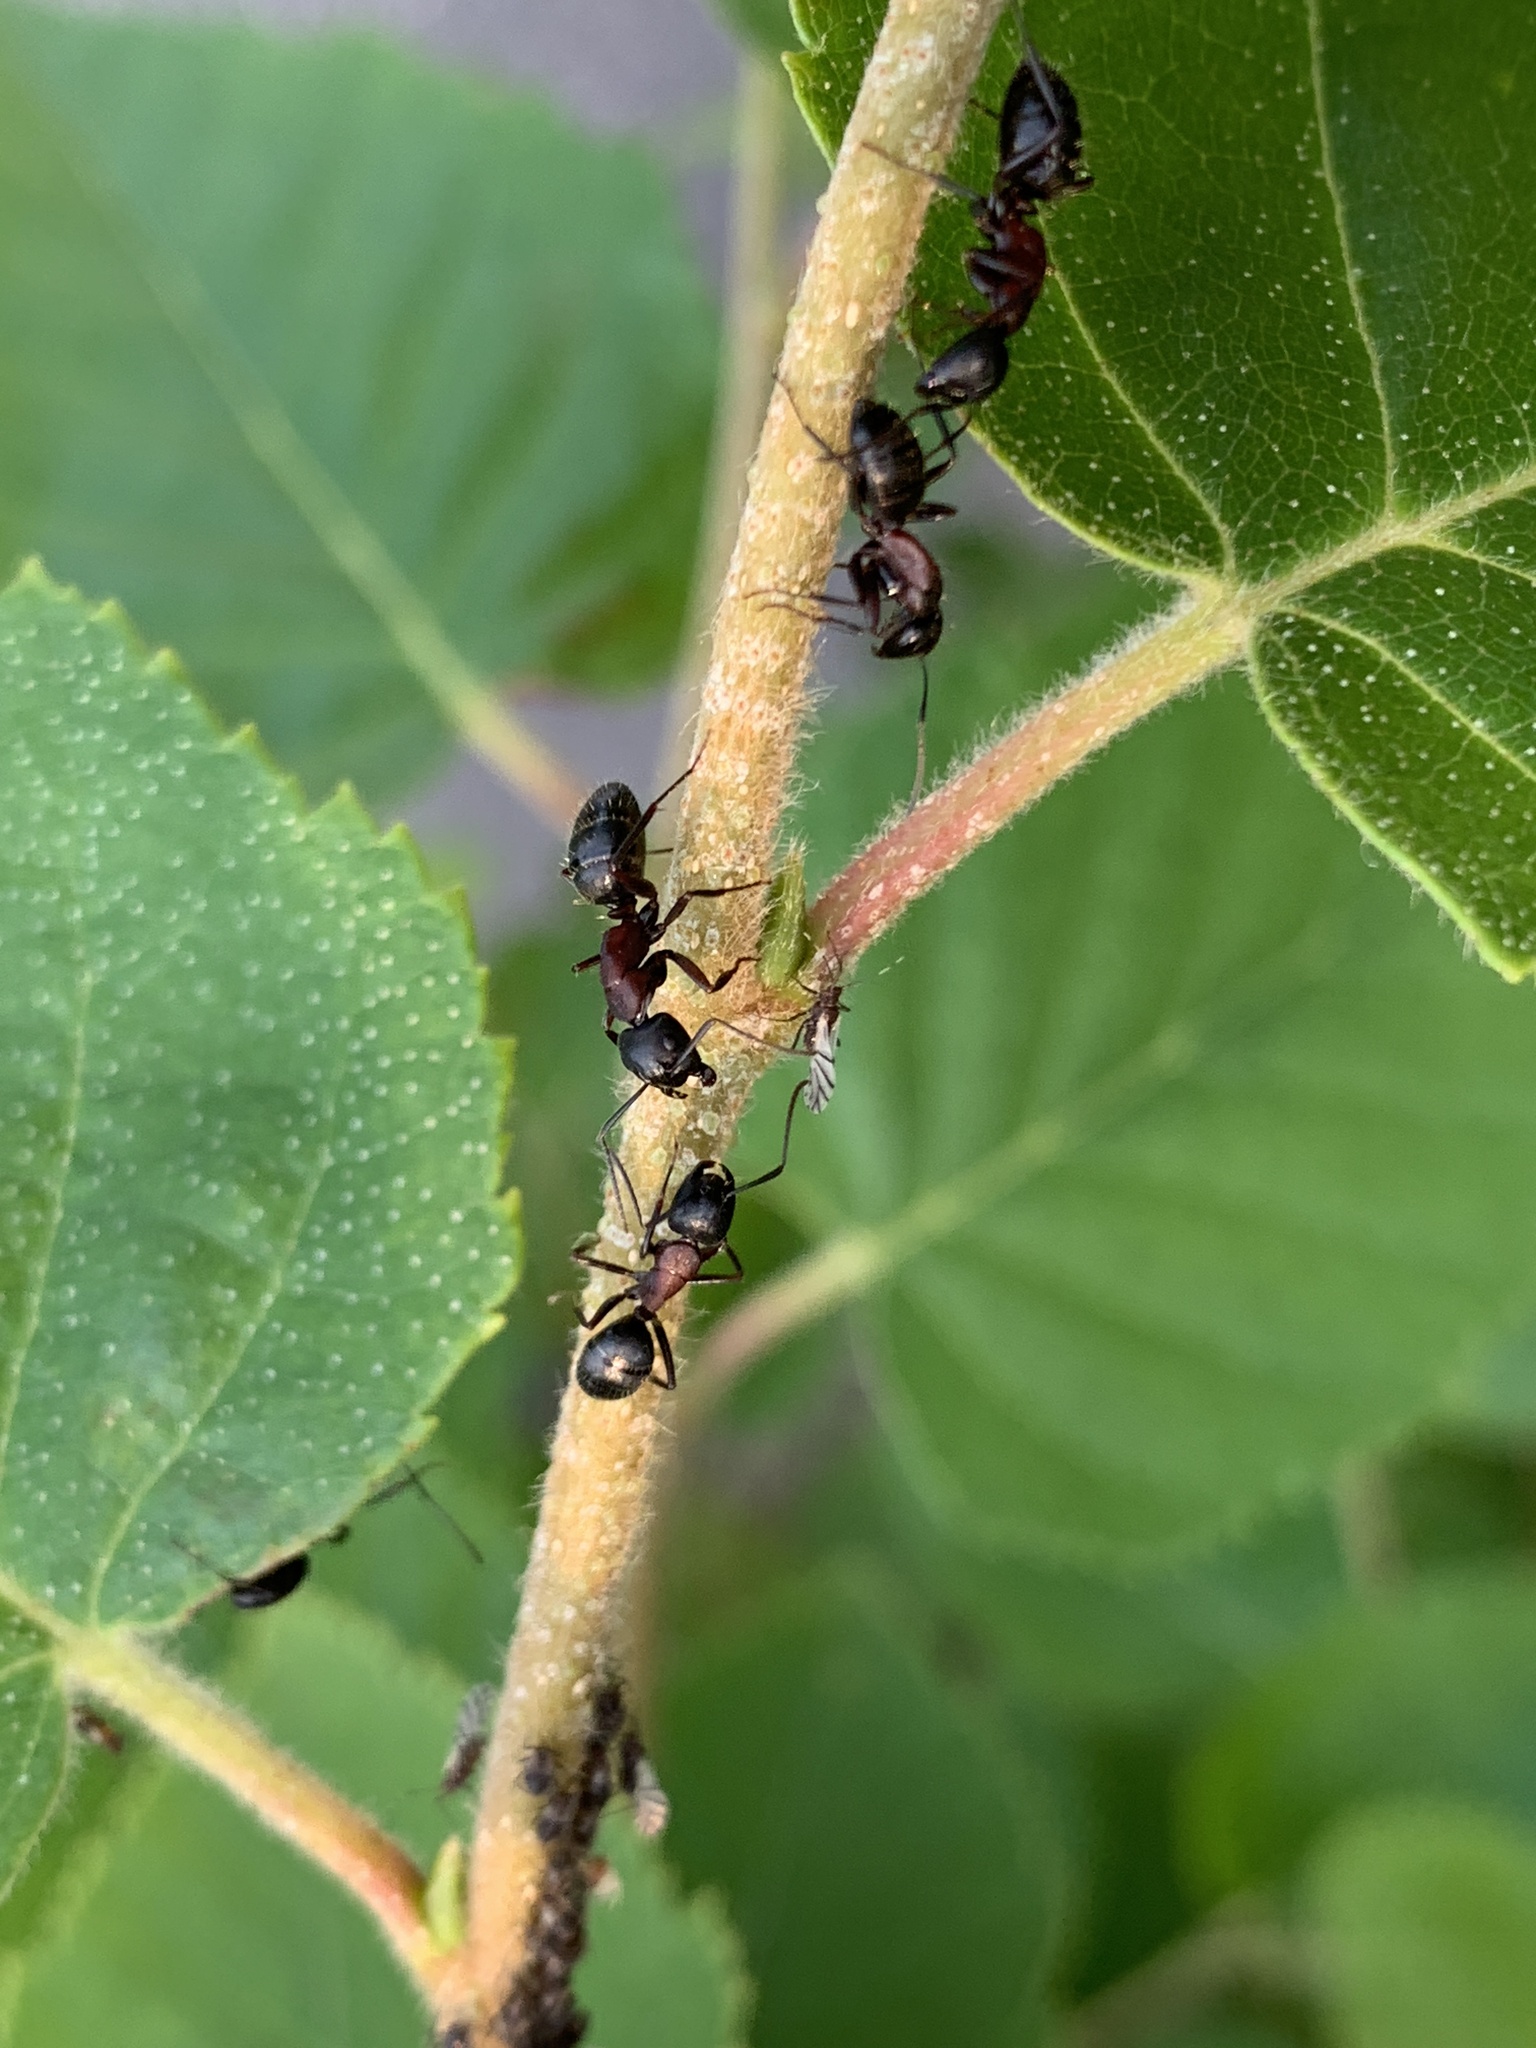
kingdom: Animalia
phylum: Arthropoda
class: Insecta
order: Hymenoptera
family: Formicidae
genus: Camponotus
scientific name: Camponotus novaeboracensis
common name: New york carpenter ant
